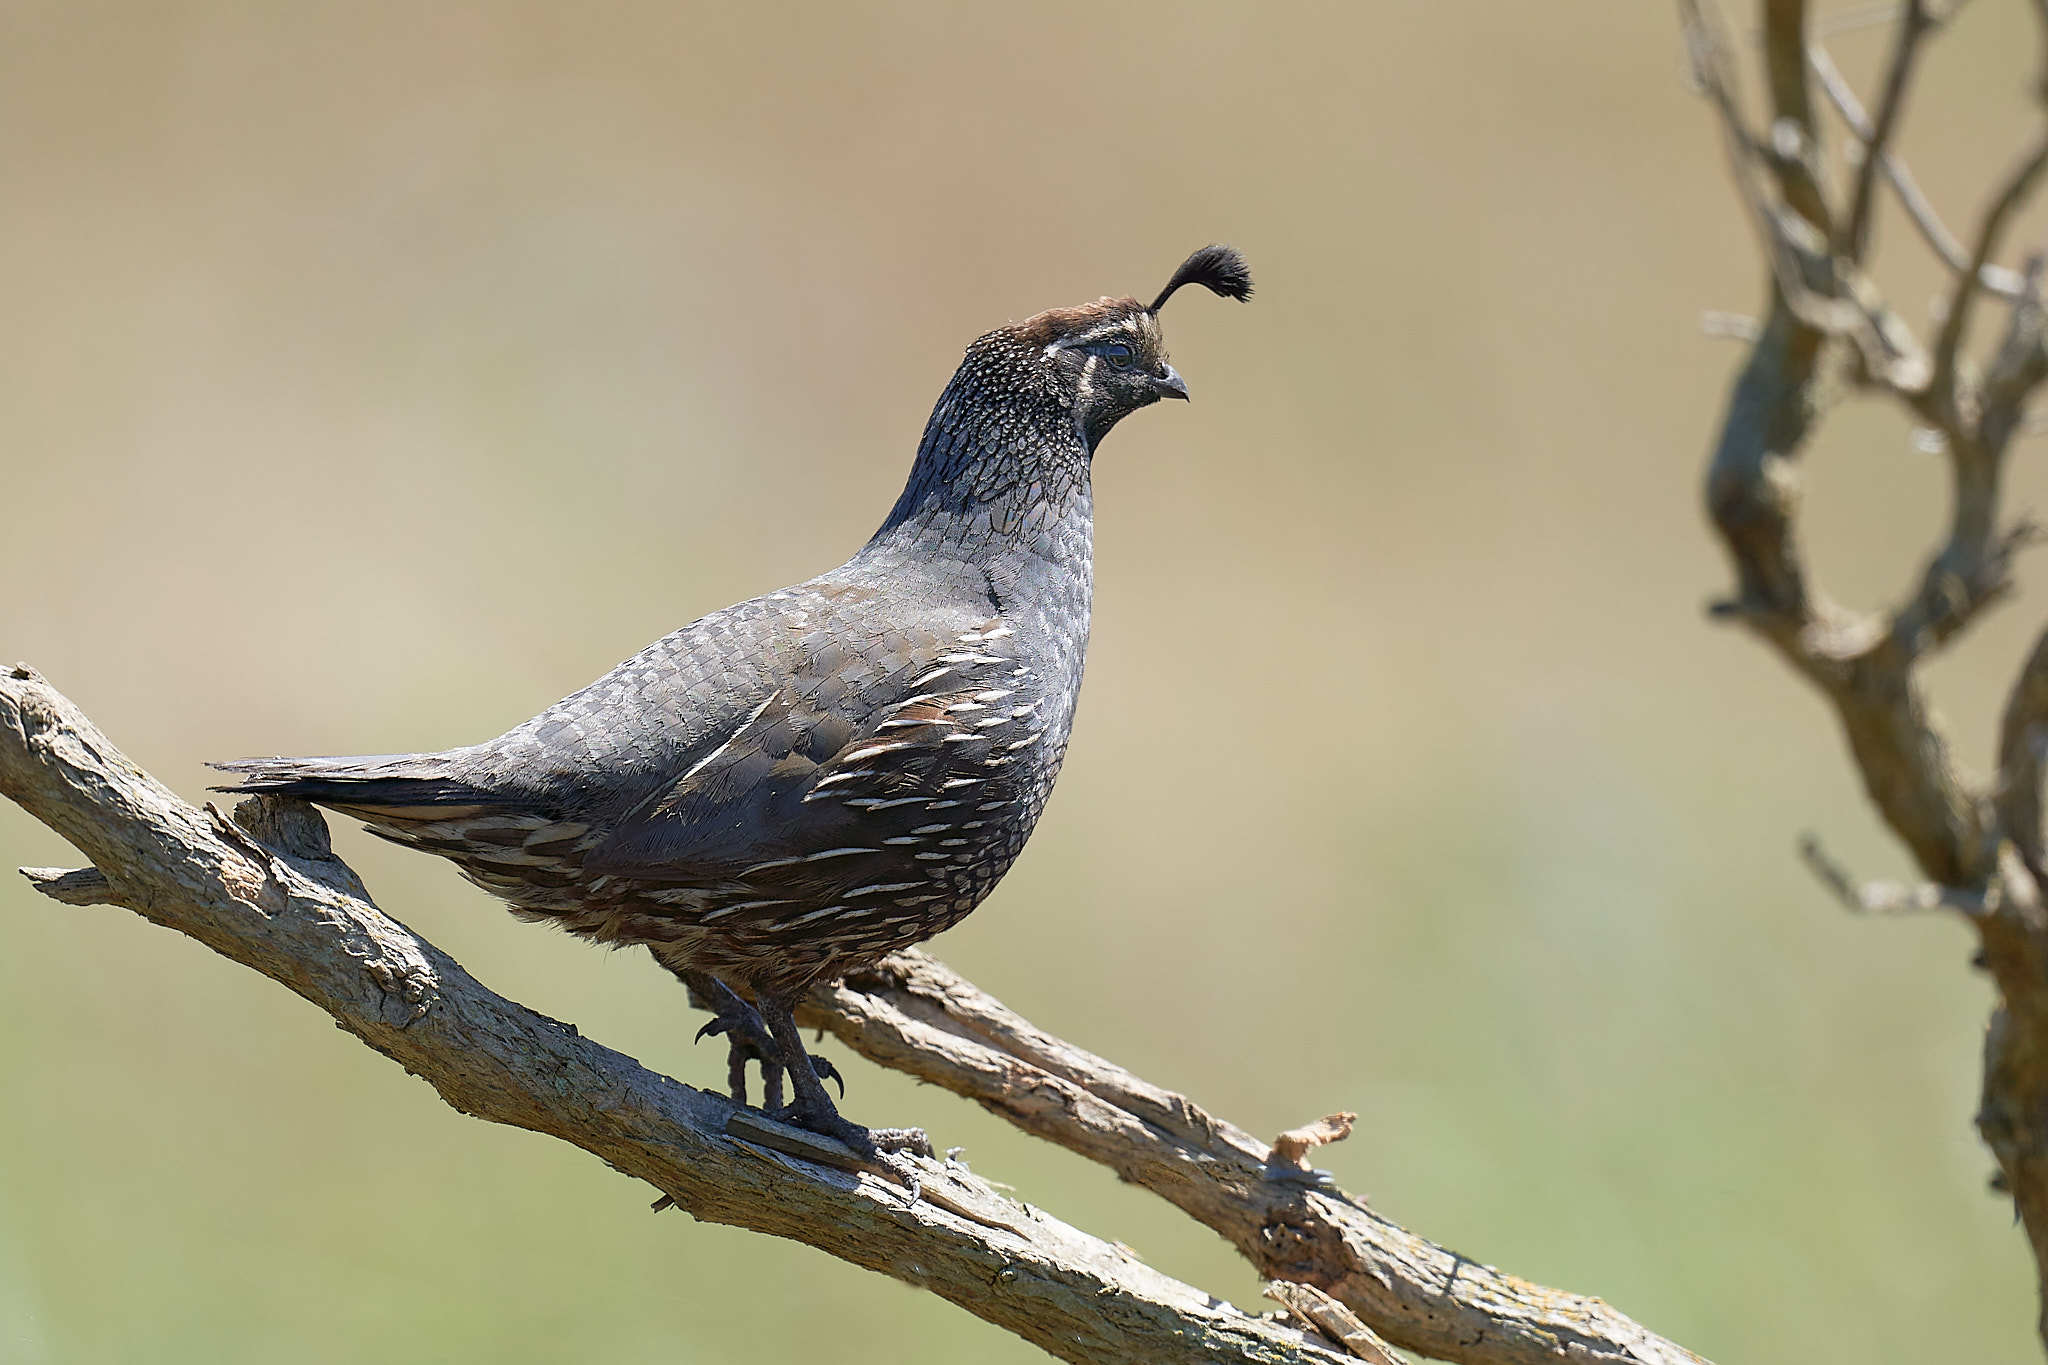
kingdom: Animalia
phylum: Chordata
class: Aves
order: Galliformes
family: Odontophoridae
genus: Callipepla
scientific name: Callipepla californica
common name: California quail
